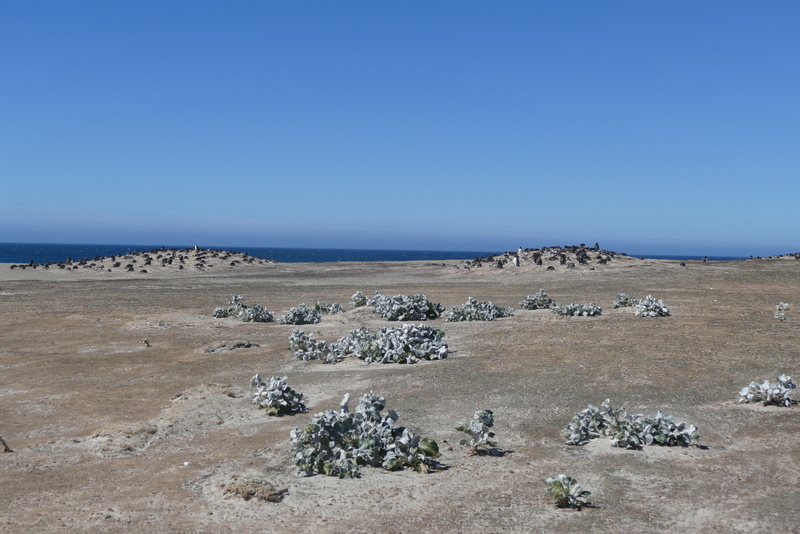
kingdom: Plantae
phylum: Tracheophyta
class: Magnoliopsida
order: Asterales
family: Asteraceae
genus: Senecio
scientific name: Senecio candidans
